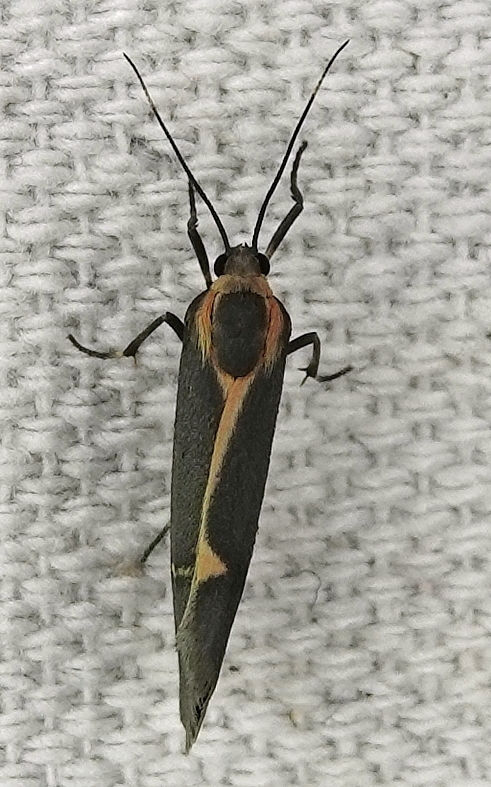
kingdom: Animalia
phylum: Arthropoda
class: Insecta
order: Lepidoptera
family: Erebidae
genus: Cisthene
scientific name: Cisthene barnesii
